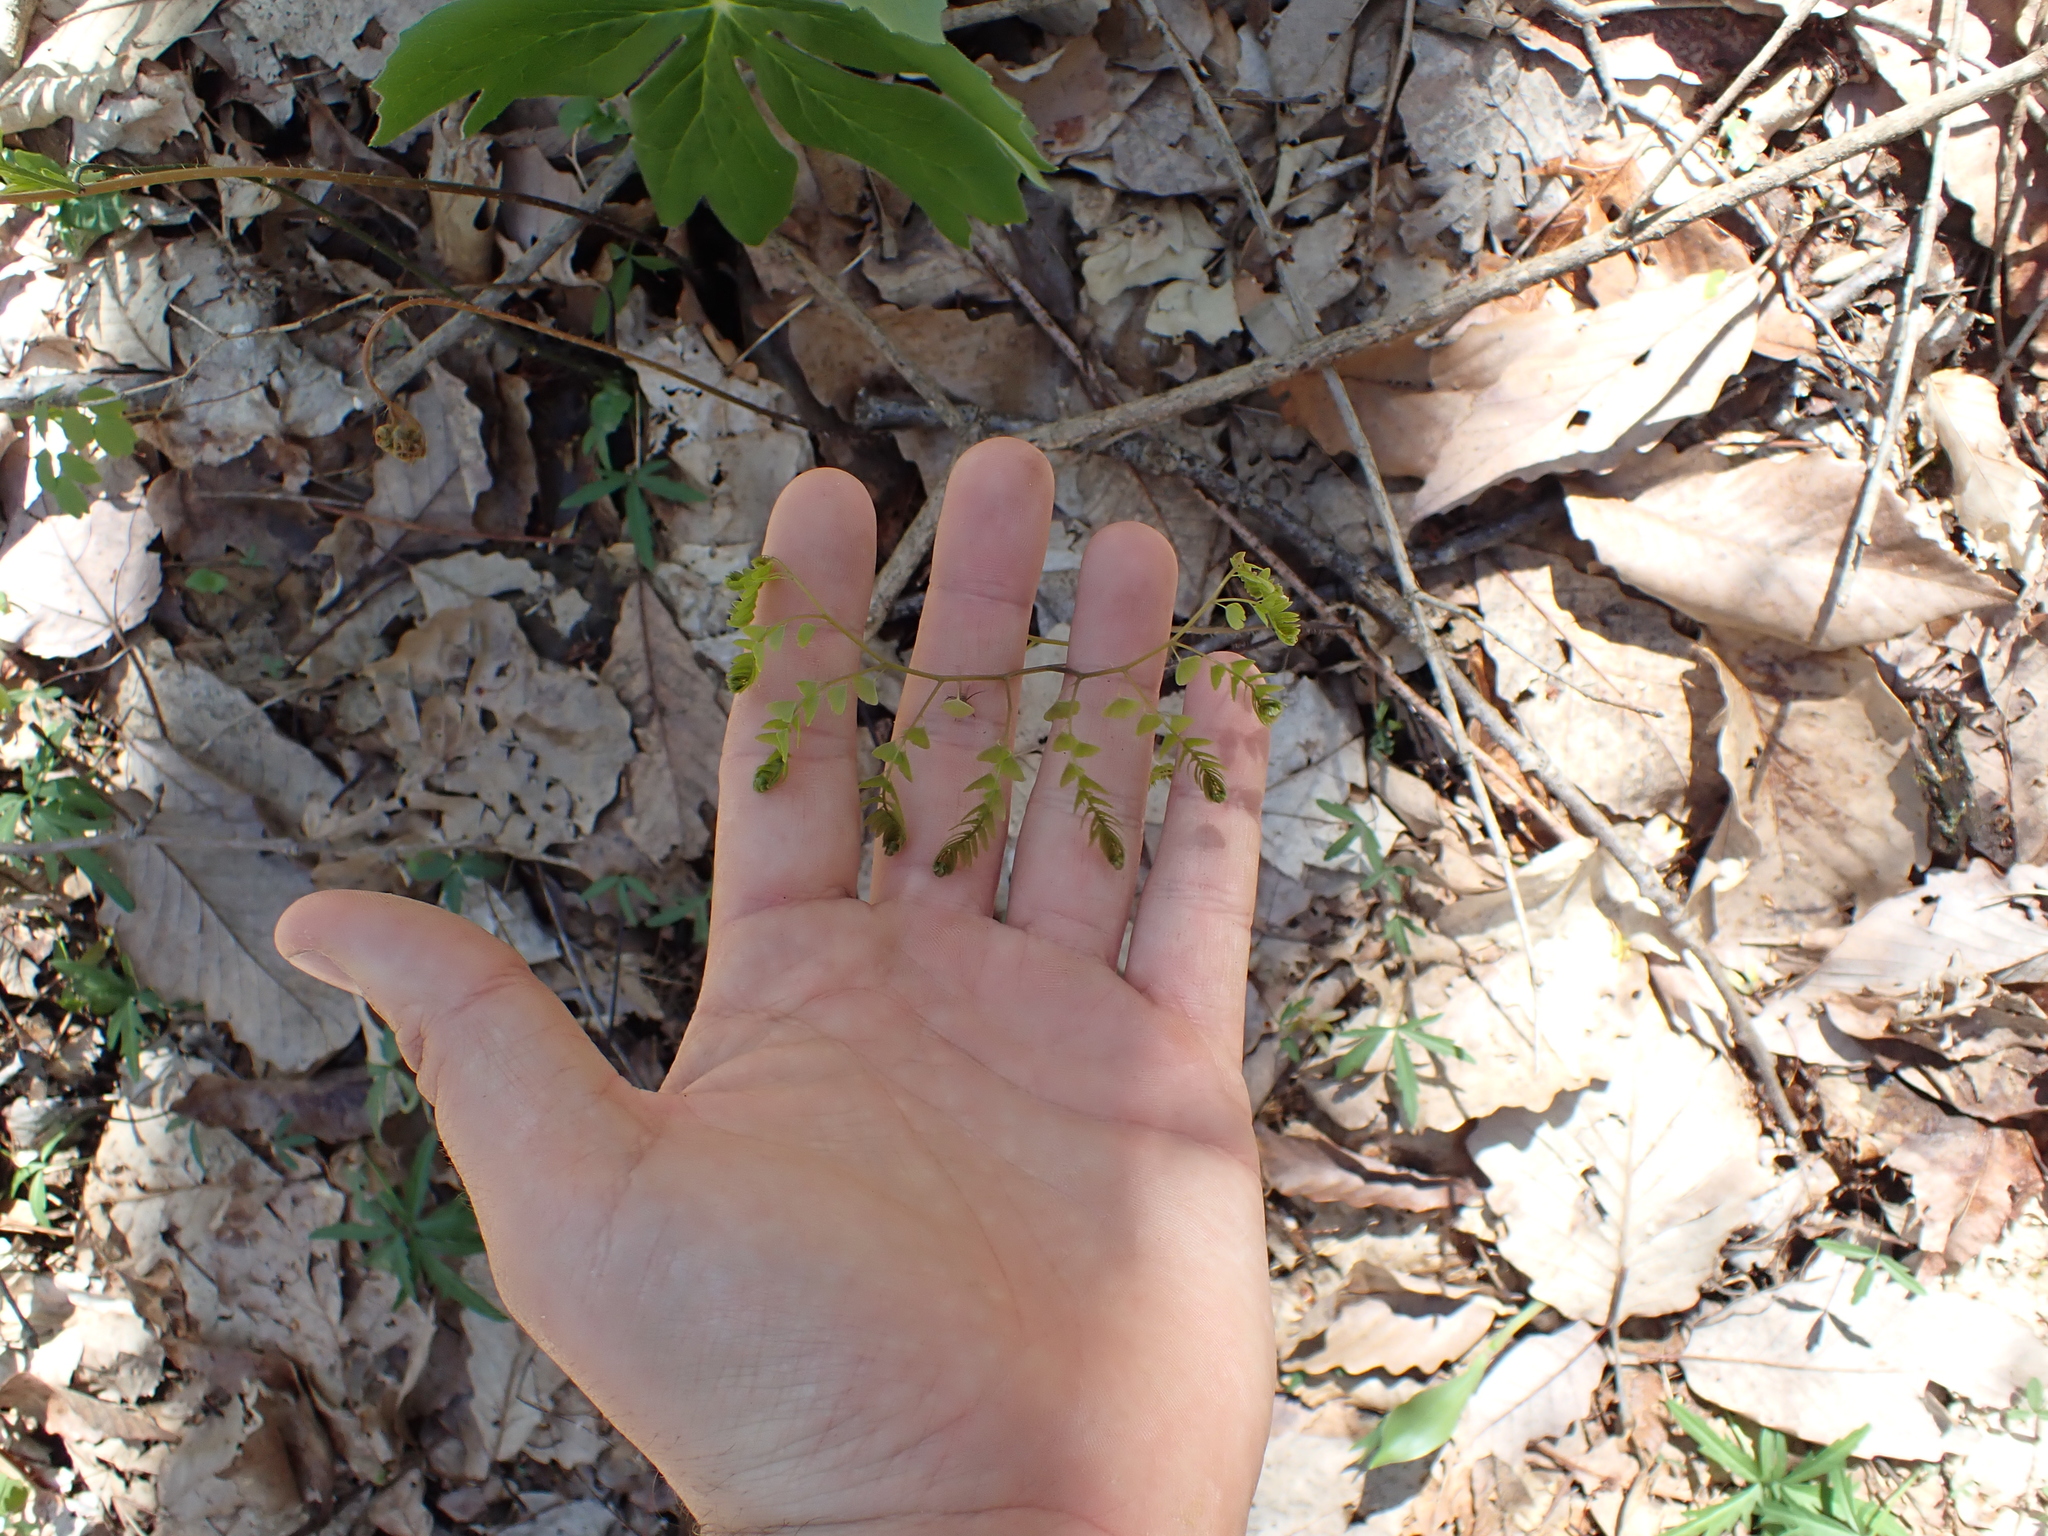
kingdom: Plantae
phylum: Tracheophyta
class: Polypodiopsida
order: Polypodiales
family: Pteridaceae
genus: Adiantum
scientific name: Adiantum pedatum
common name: Five-finger fern
